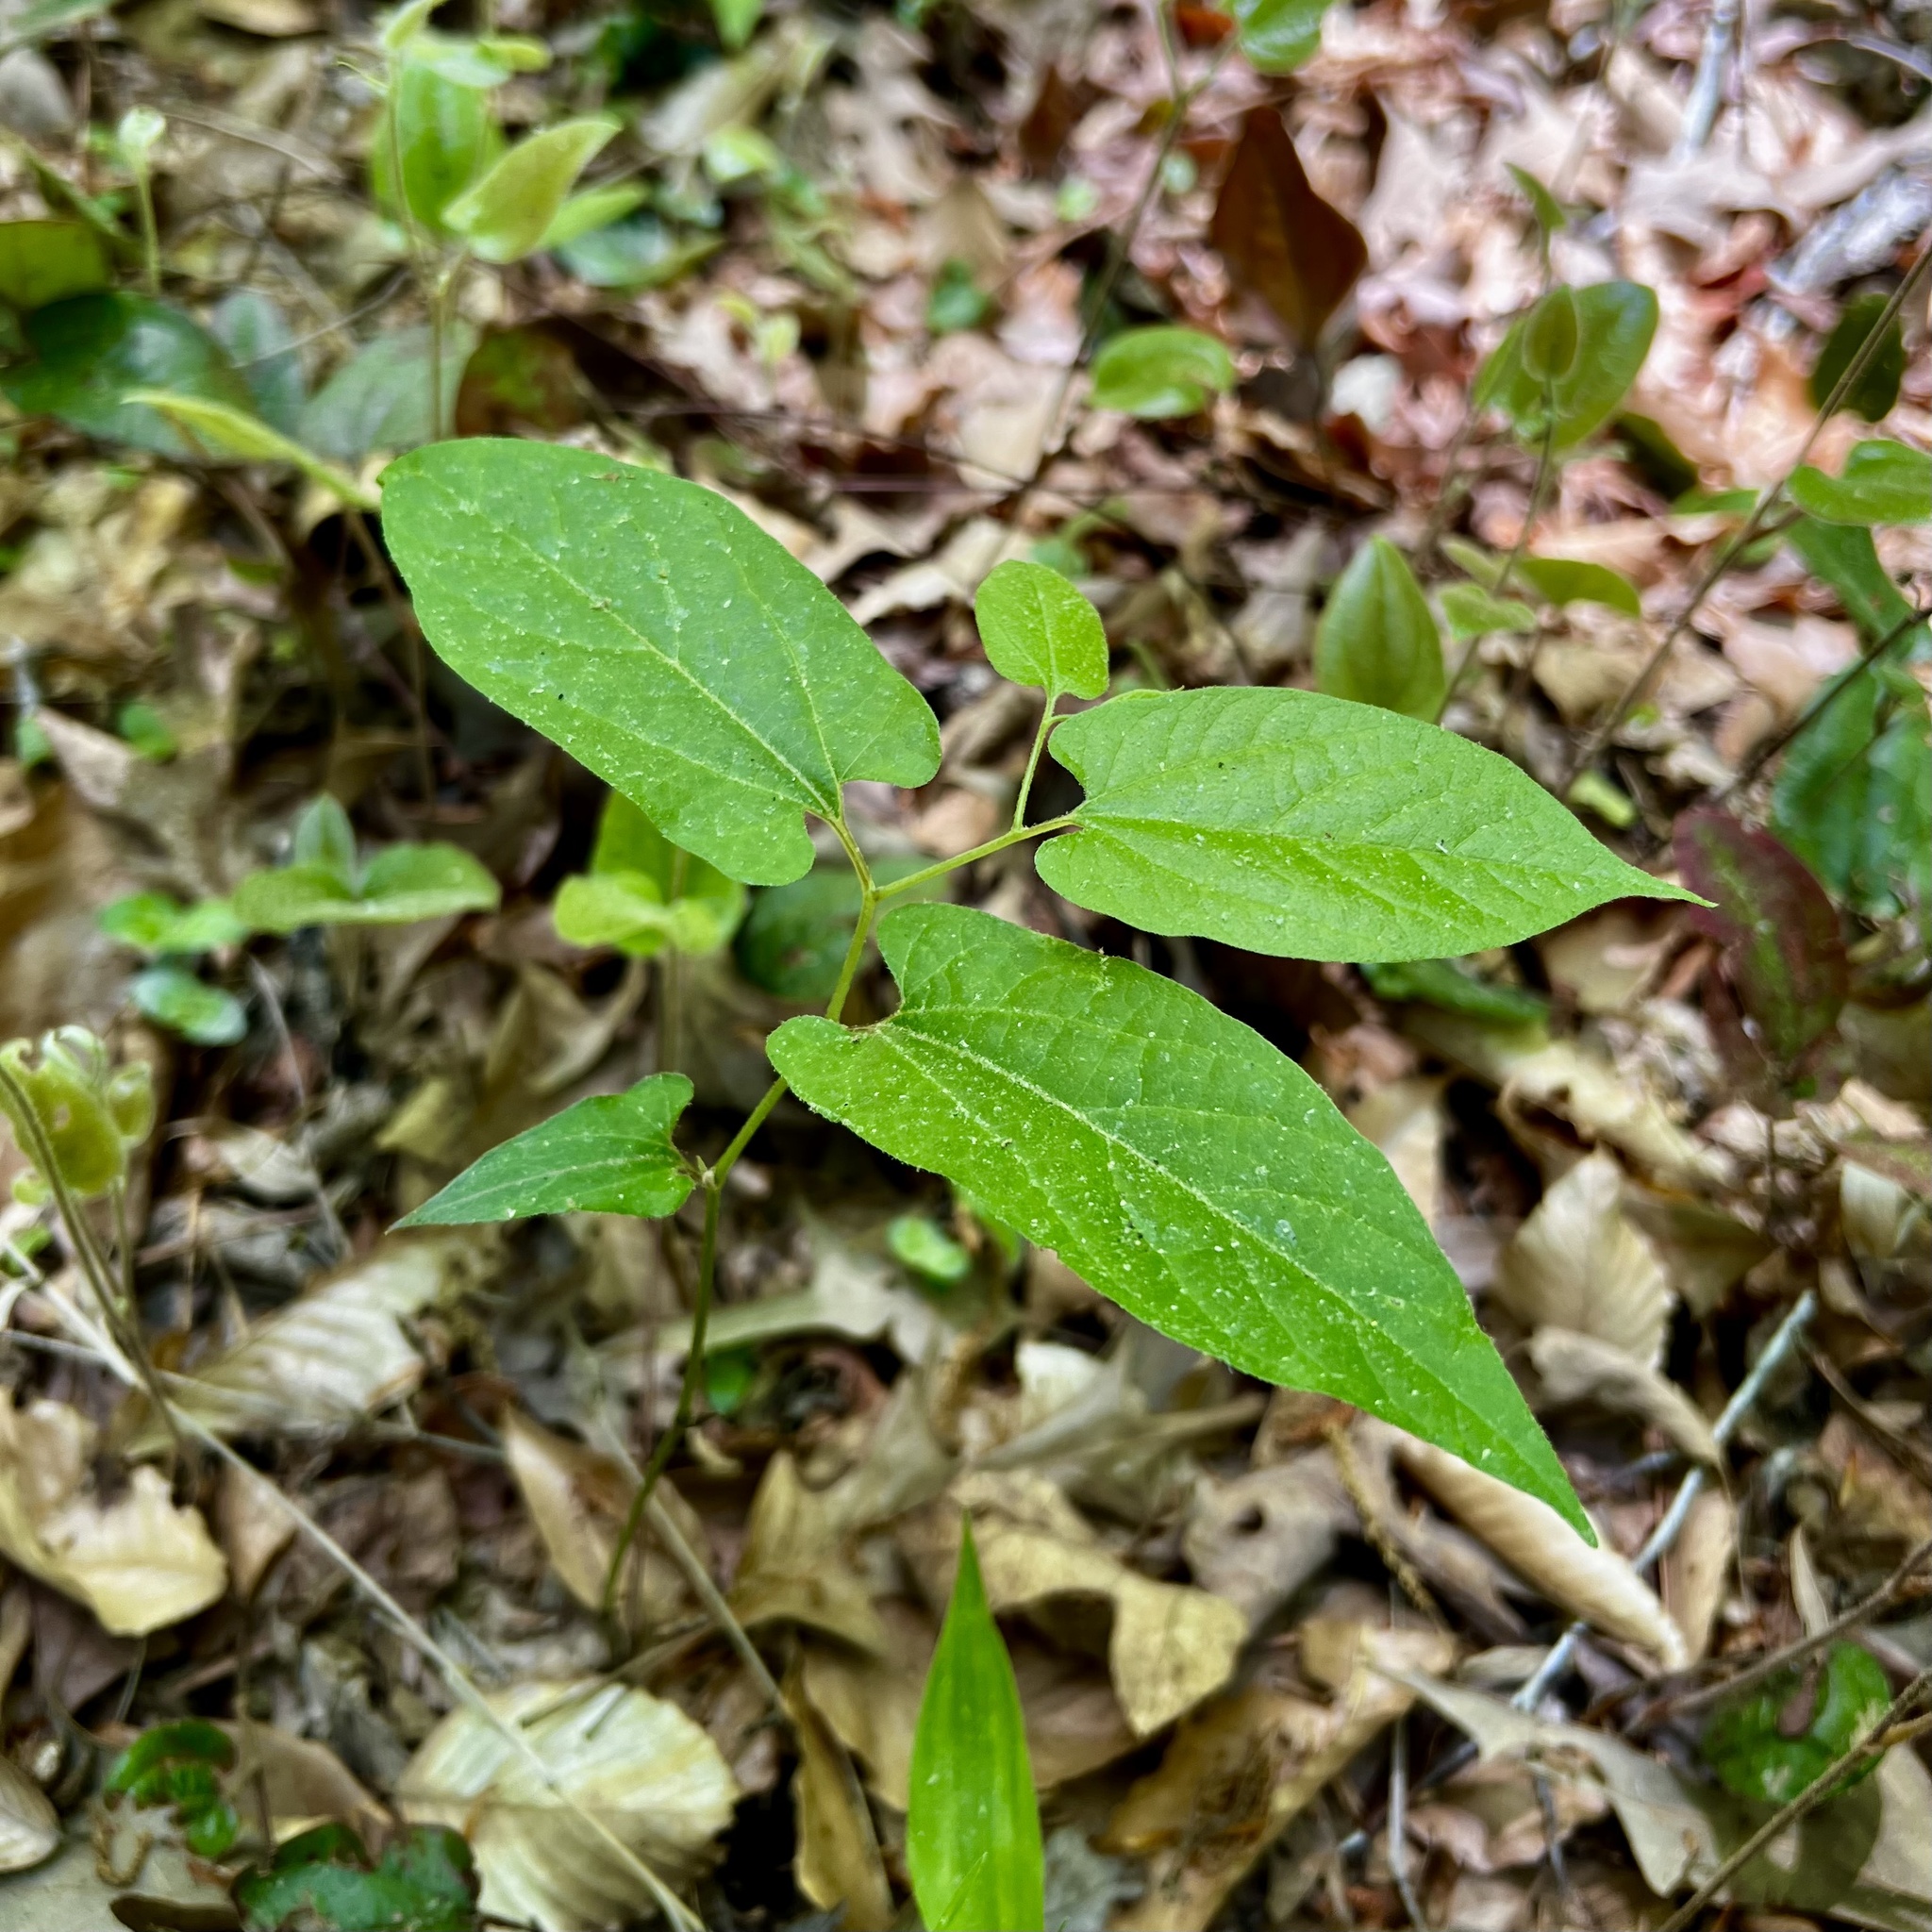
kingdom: Plantae
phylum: Tracheophyta
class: Magnoliopsida
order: Piperales
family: Aristolochiaceae
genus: Endodeca
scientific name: Endodeca serpentaria
